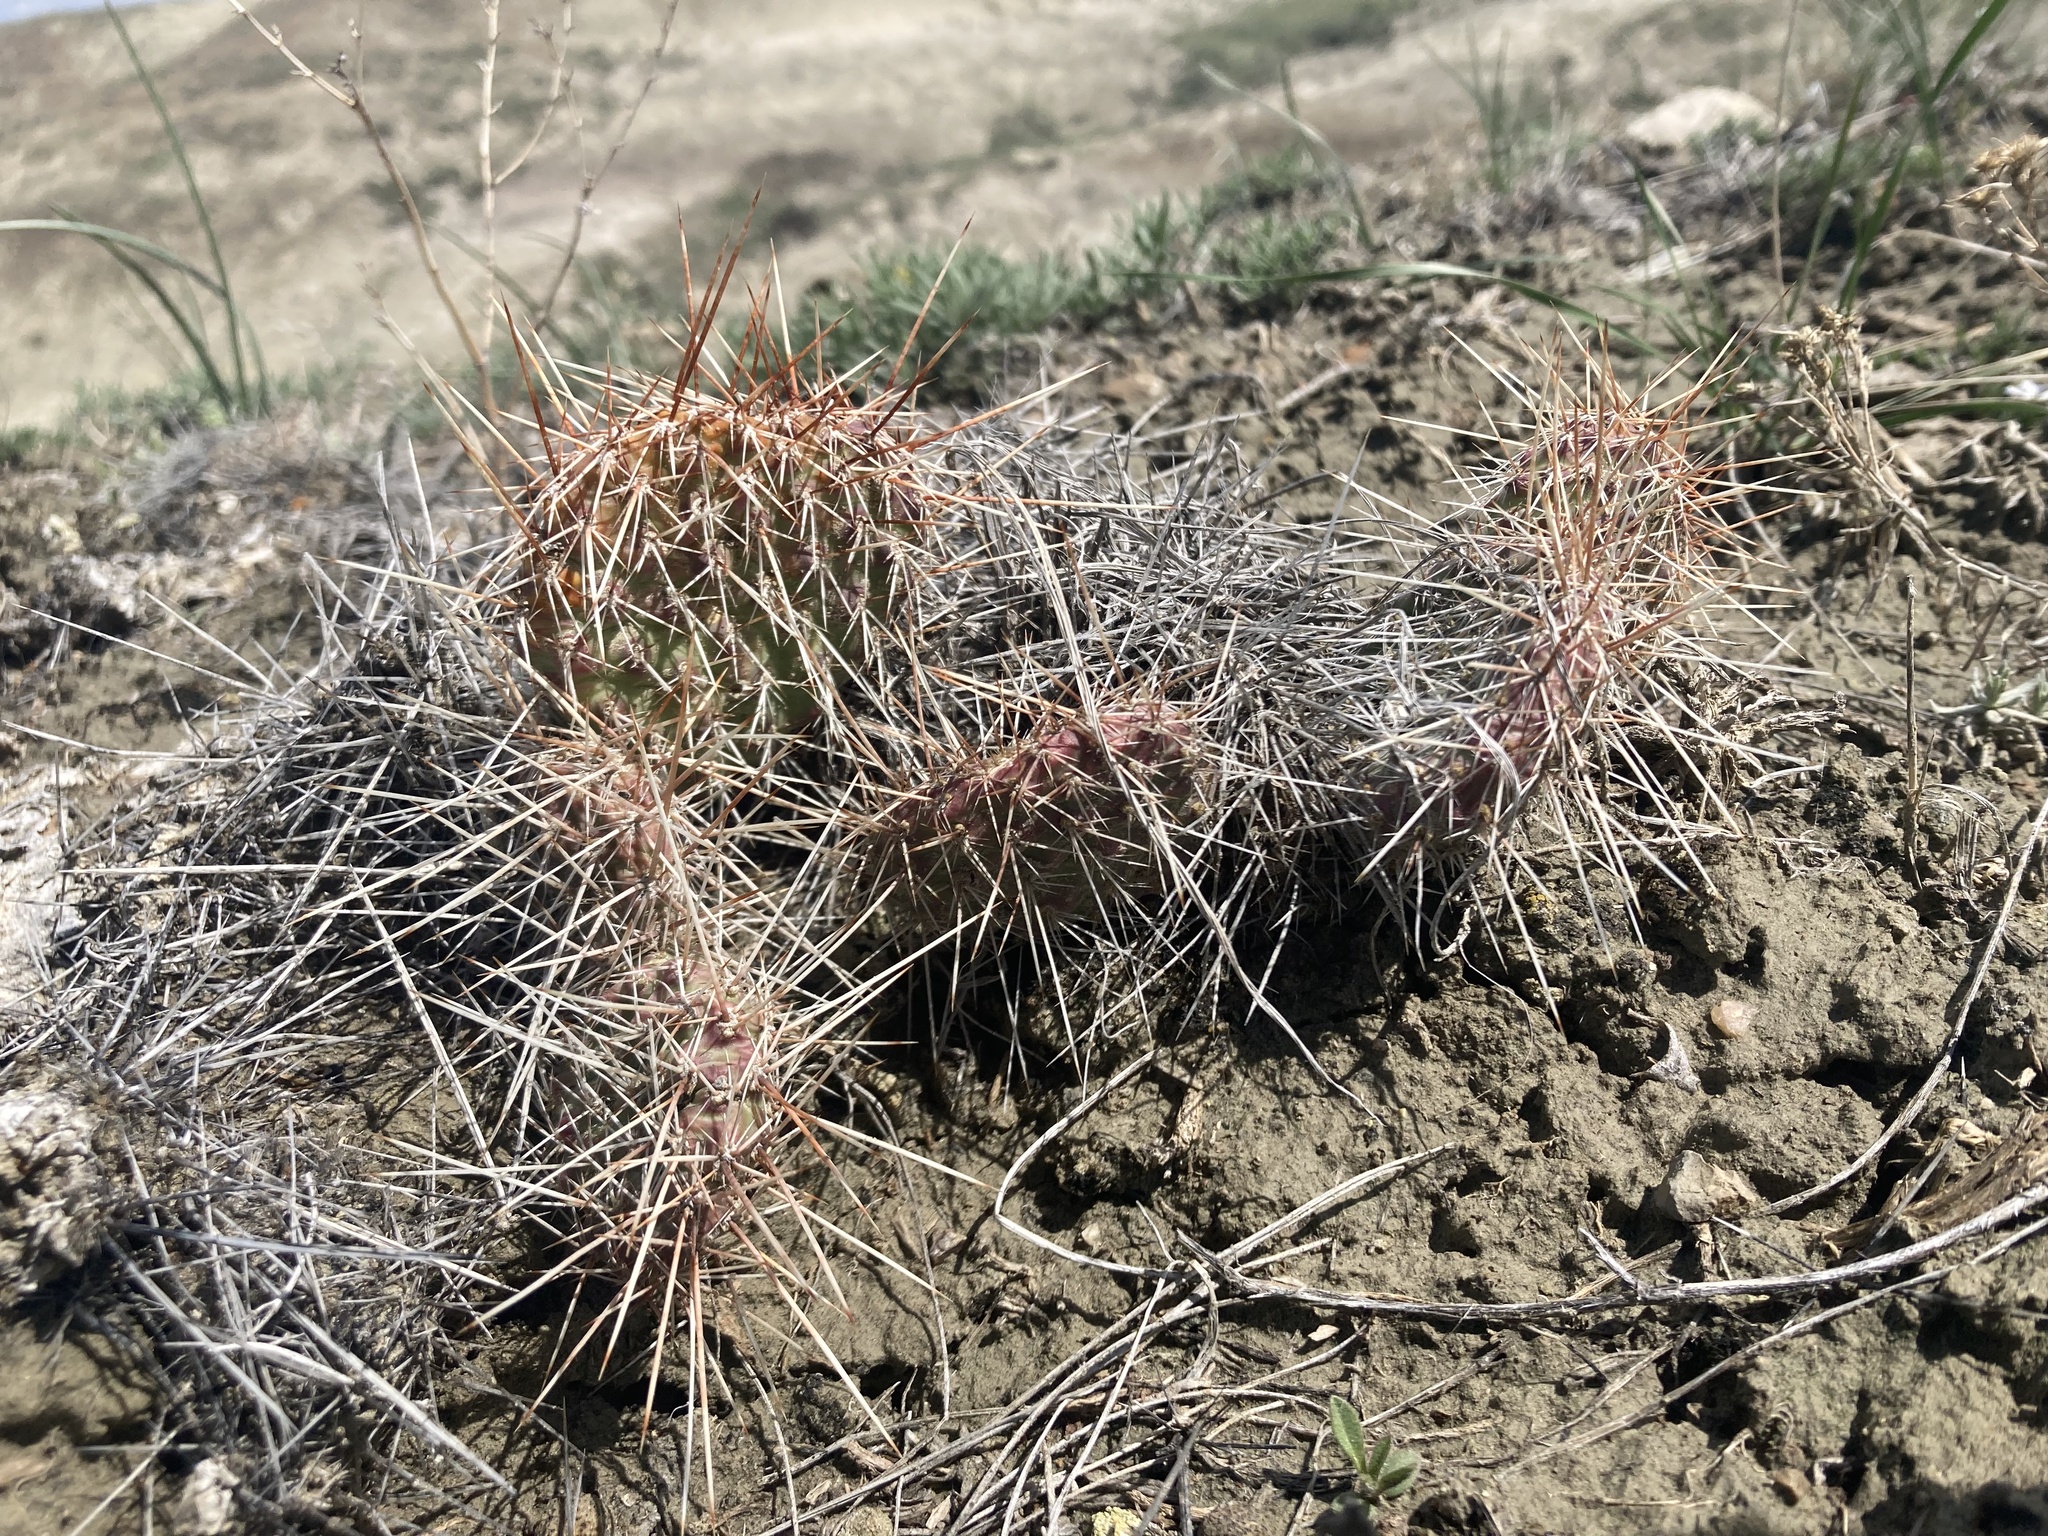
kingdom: Plantae
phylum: Tracheophyta
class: Magnoliopsida
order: Caryophyllales
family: Cactaceae
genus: Opuntia
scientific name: Opuntia polyacantha
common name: Plains prickly-pear
